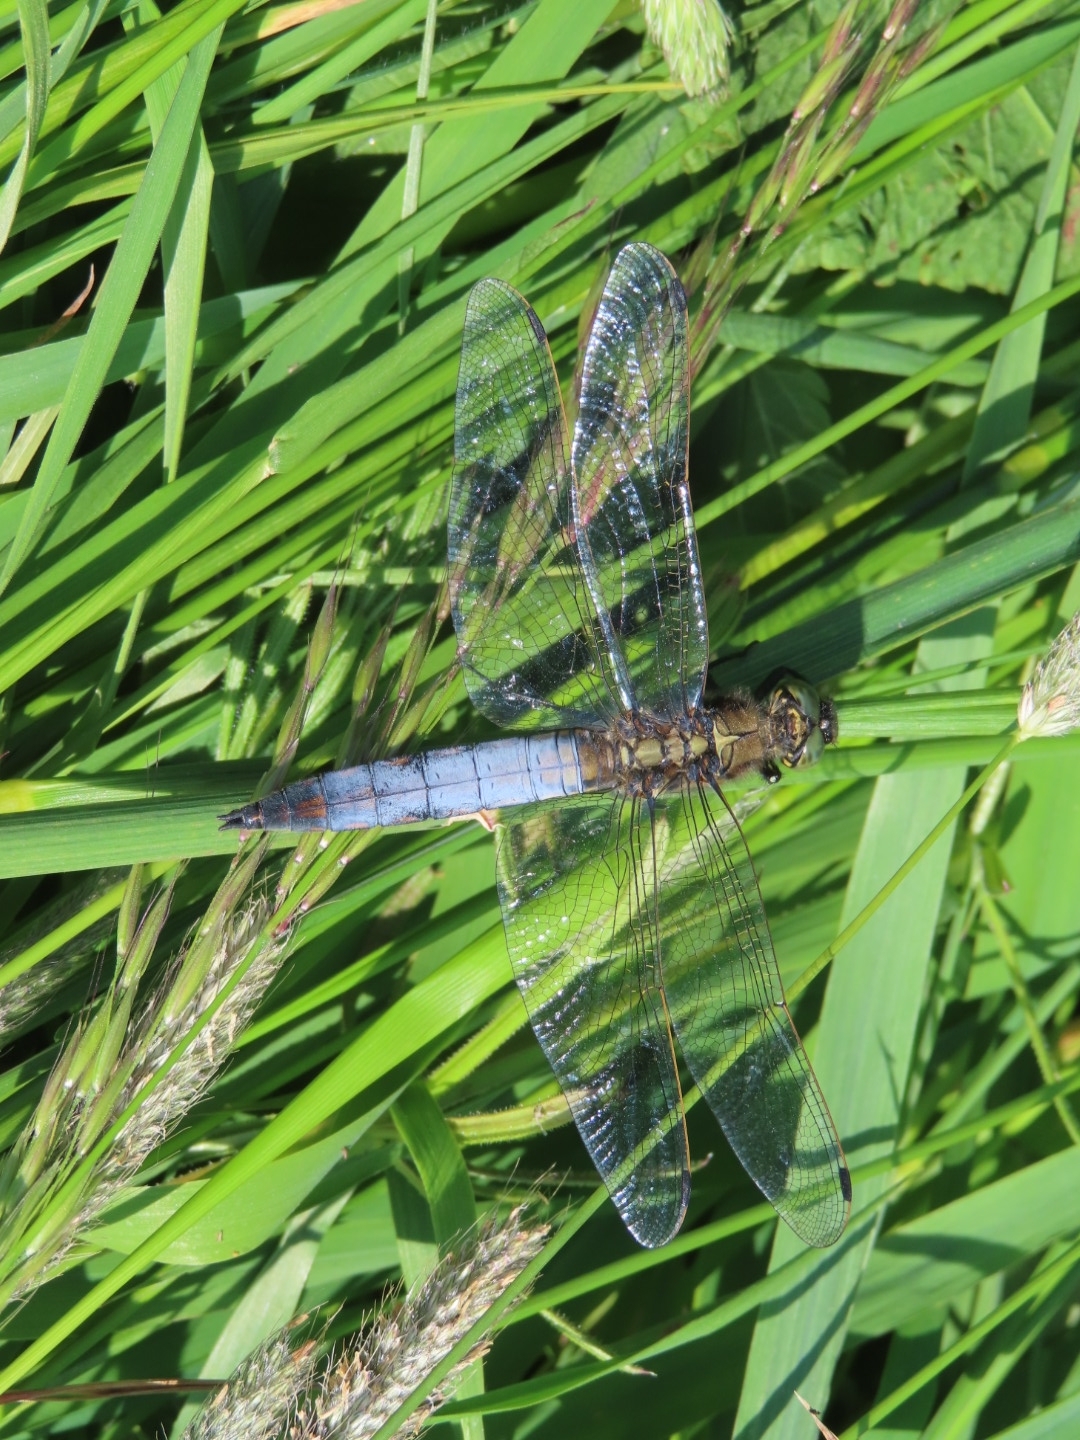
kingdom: Animalia
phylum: Arthropoda
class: Insecta
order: Odonata
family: Libellulidae
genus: Orthetrum
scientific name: Orthetrum cancellatum
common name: Black-tailed skimmer
